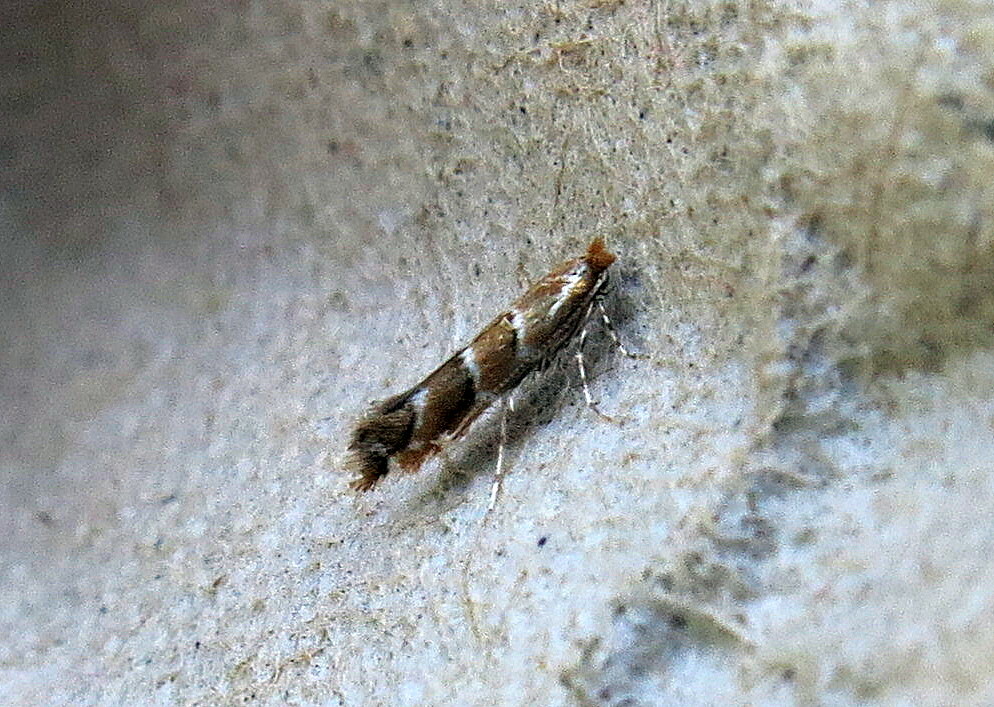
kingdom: Animalia
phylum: Arthropoda
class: Insecta
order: Lepidoptera
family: Gracillariidae
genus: Cameraria
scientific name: Cameraria ohridella
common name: Horse-chestnut leaf-miner
